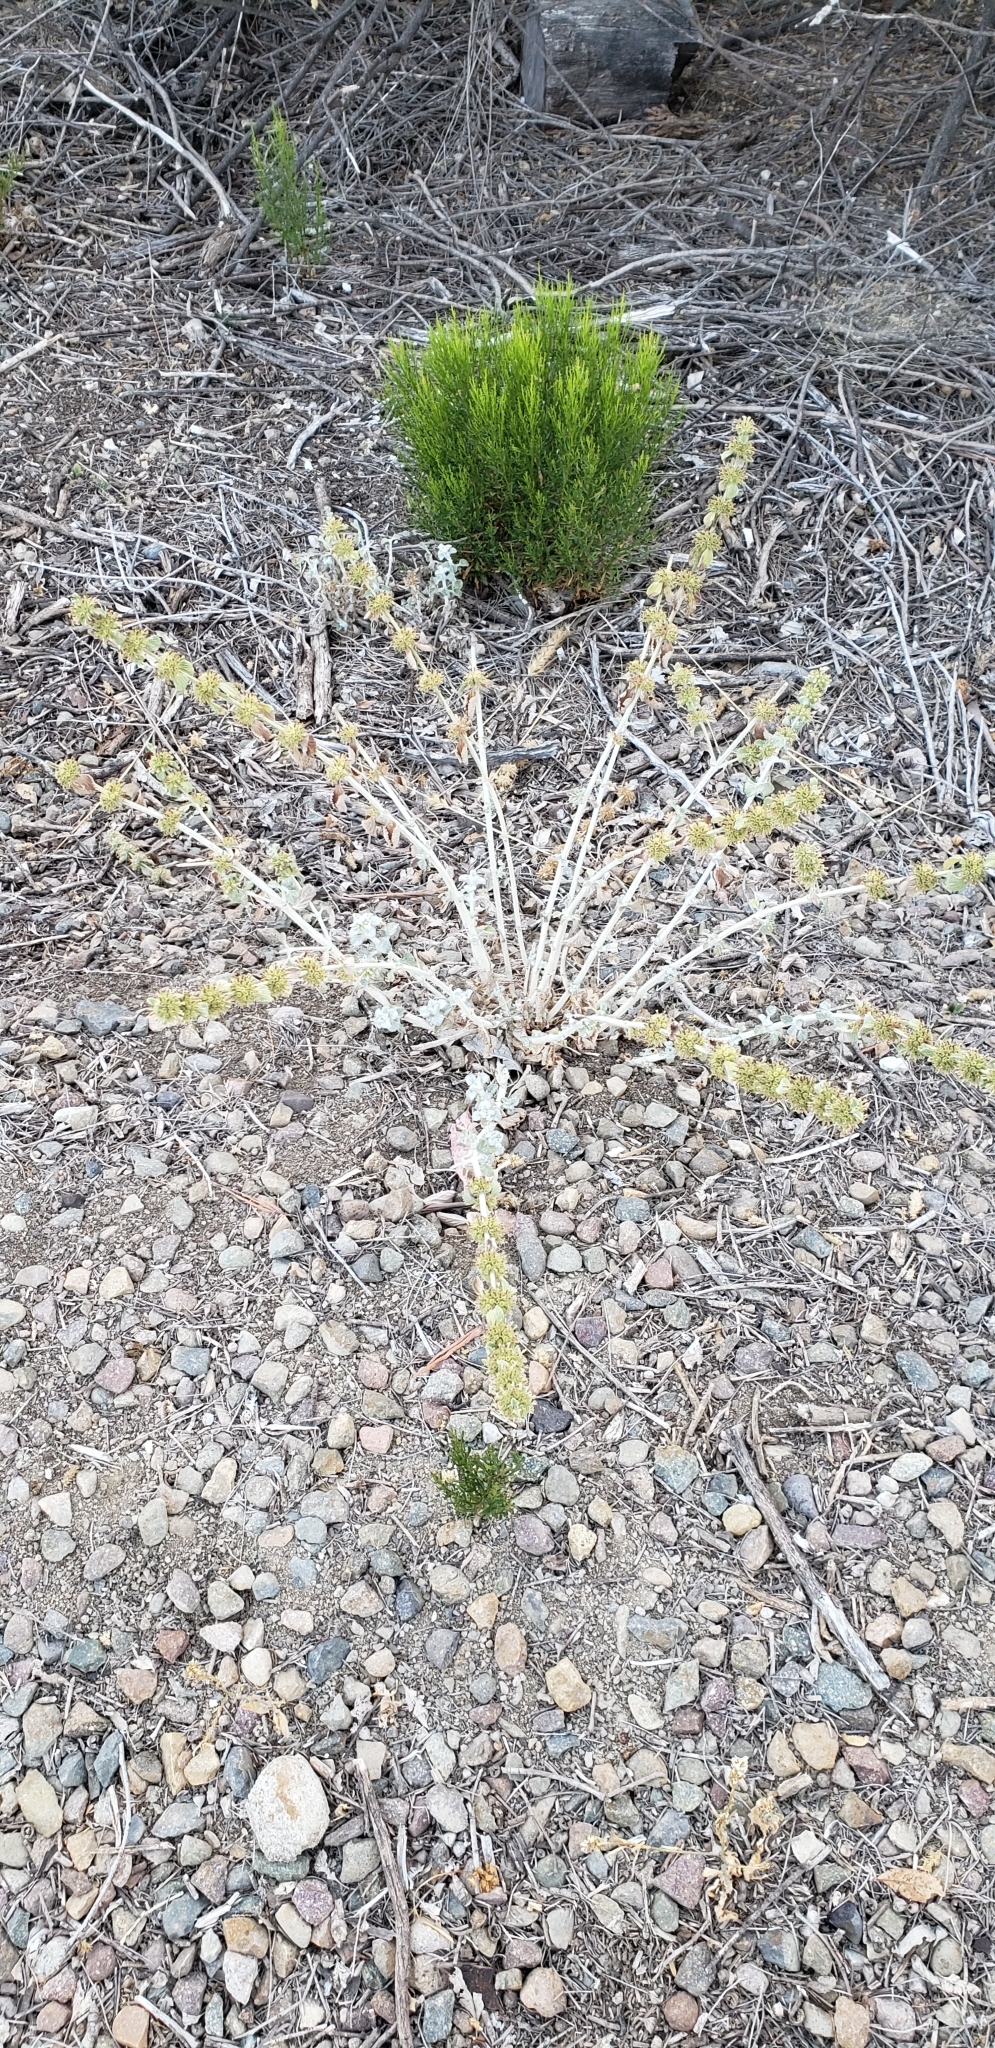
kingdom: Plantae
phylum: Tracheophyta
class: Magnoliopsida
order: Lamiales
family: Lamiaceae
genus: Marrubium
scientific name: Marrubium vulgare
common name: Horehound
